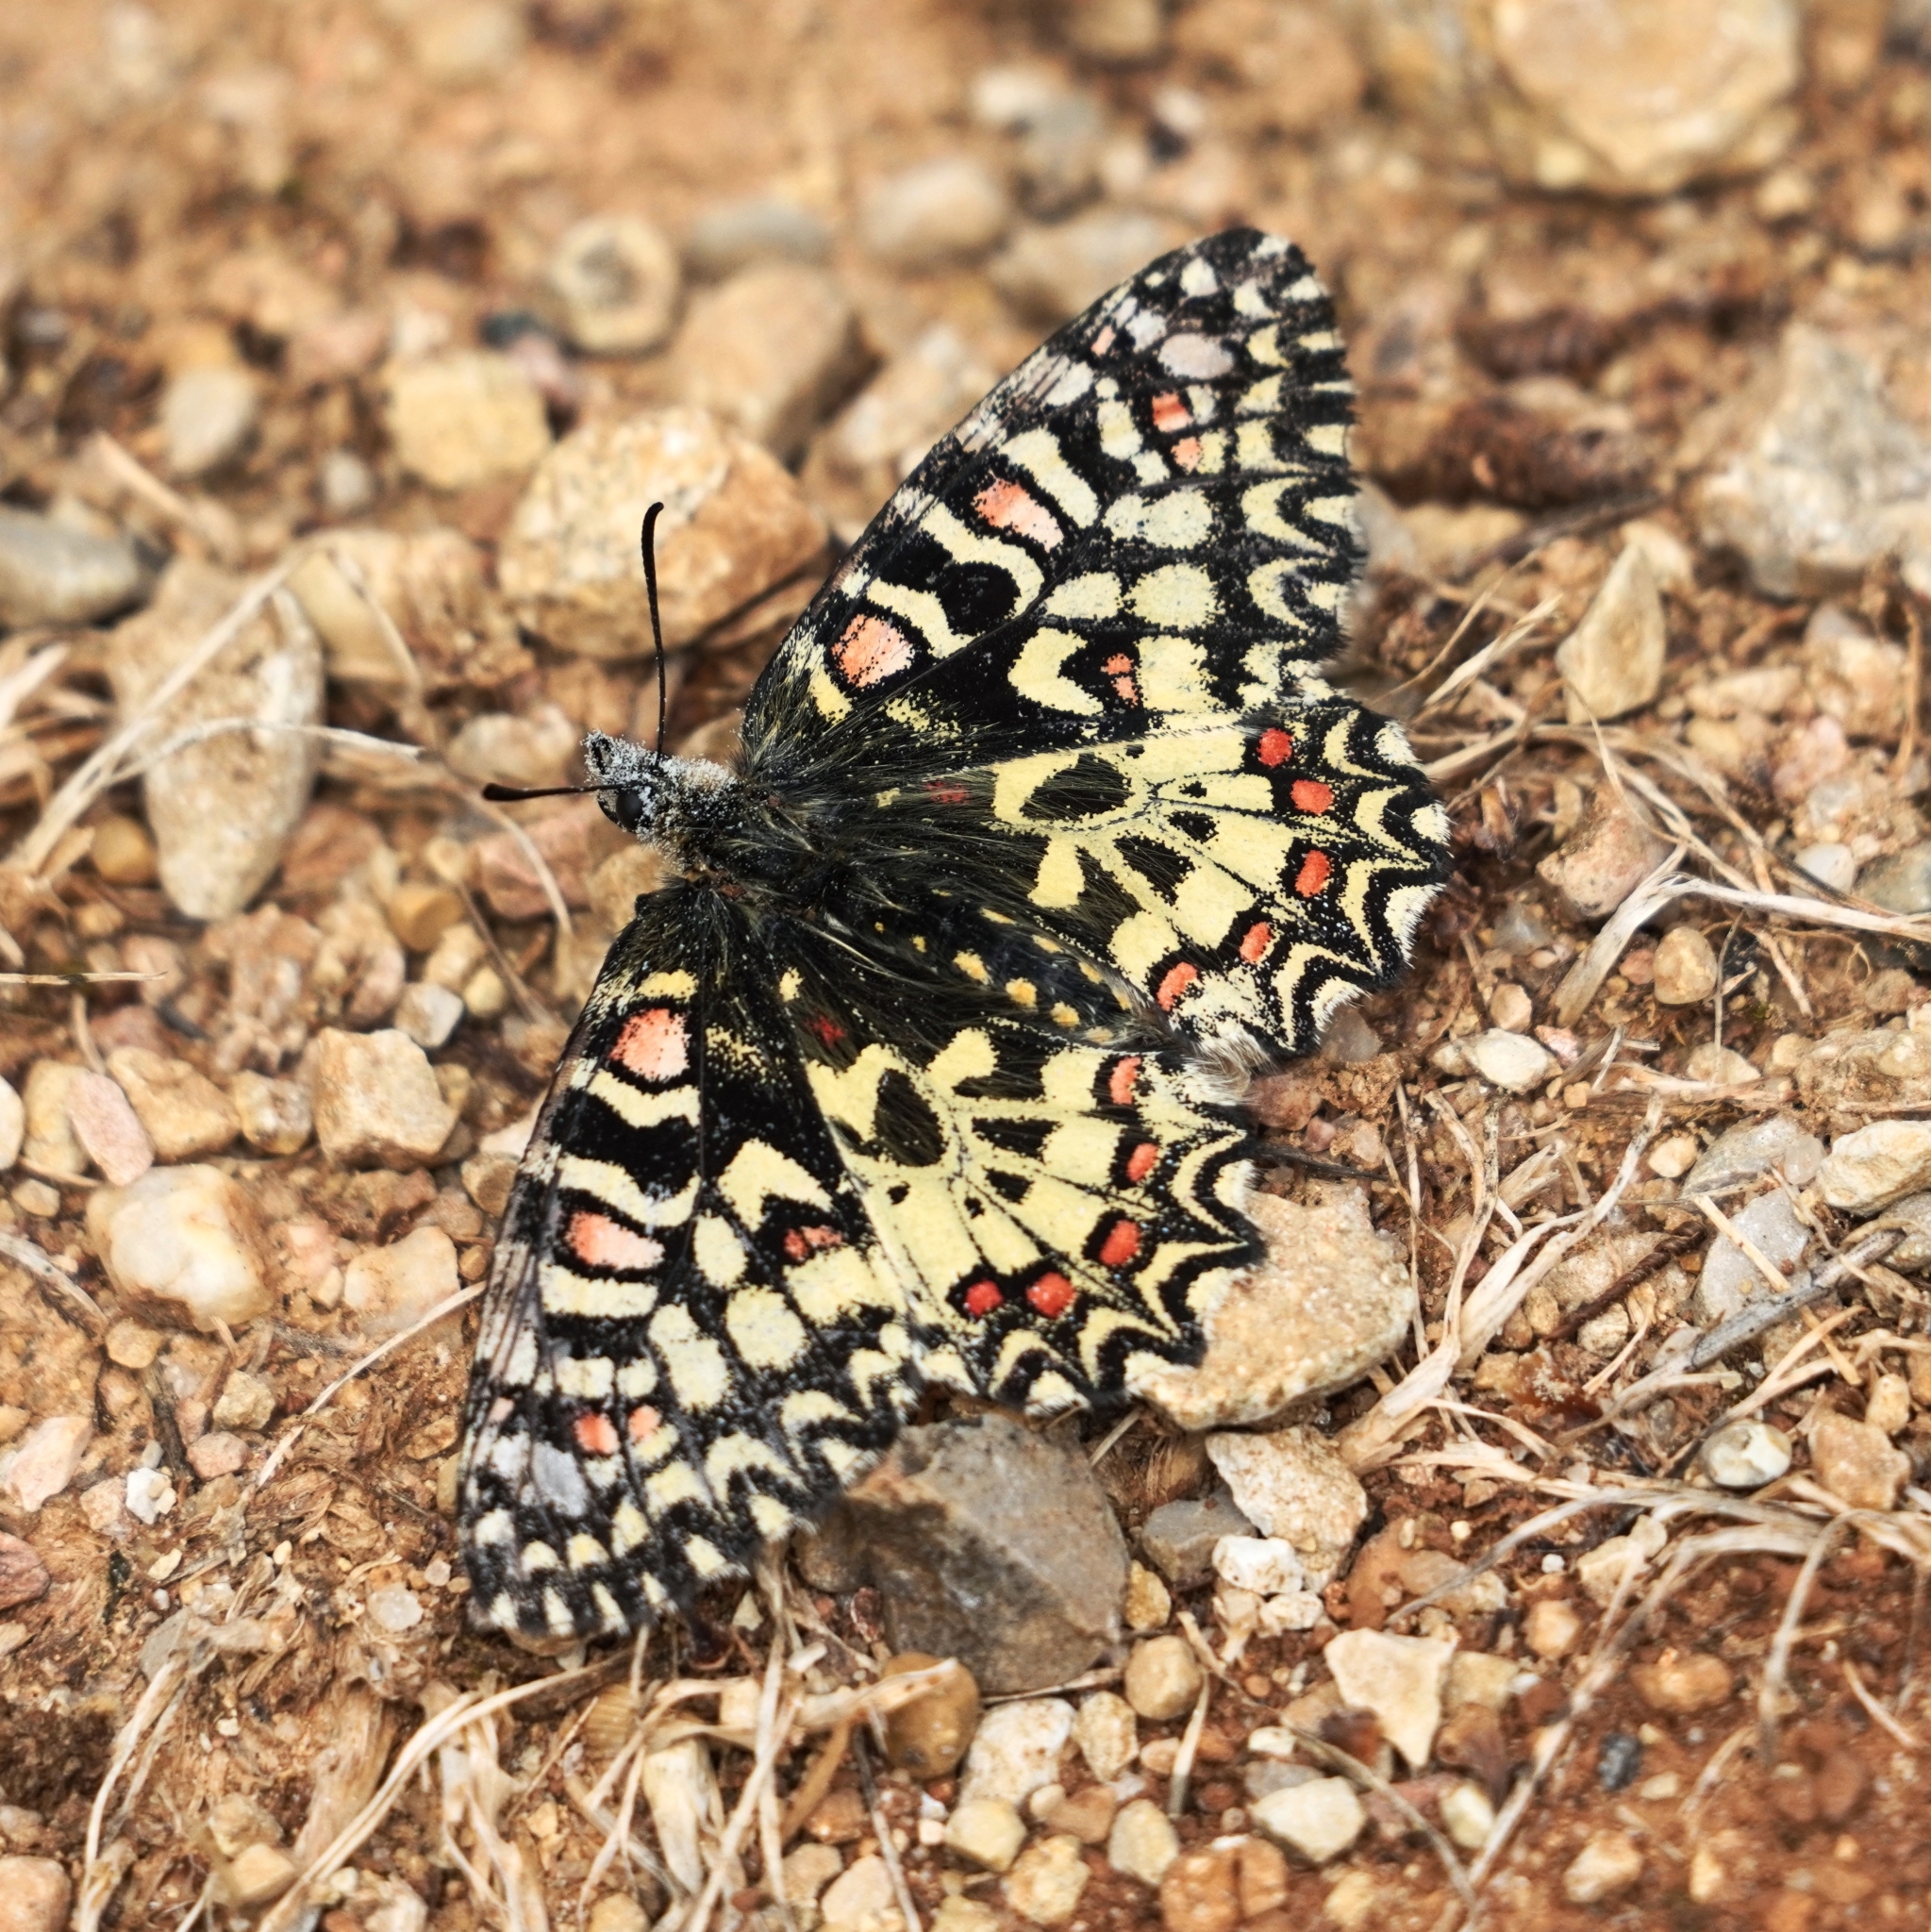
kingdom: Animalia
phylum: Arthropoda
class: Insecta
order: Lepidoptera
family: Papilionidae
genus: Zerynthia
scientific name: Zerynthia rumina
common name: Spanish festoon
